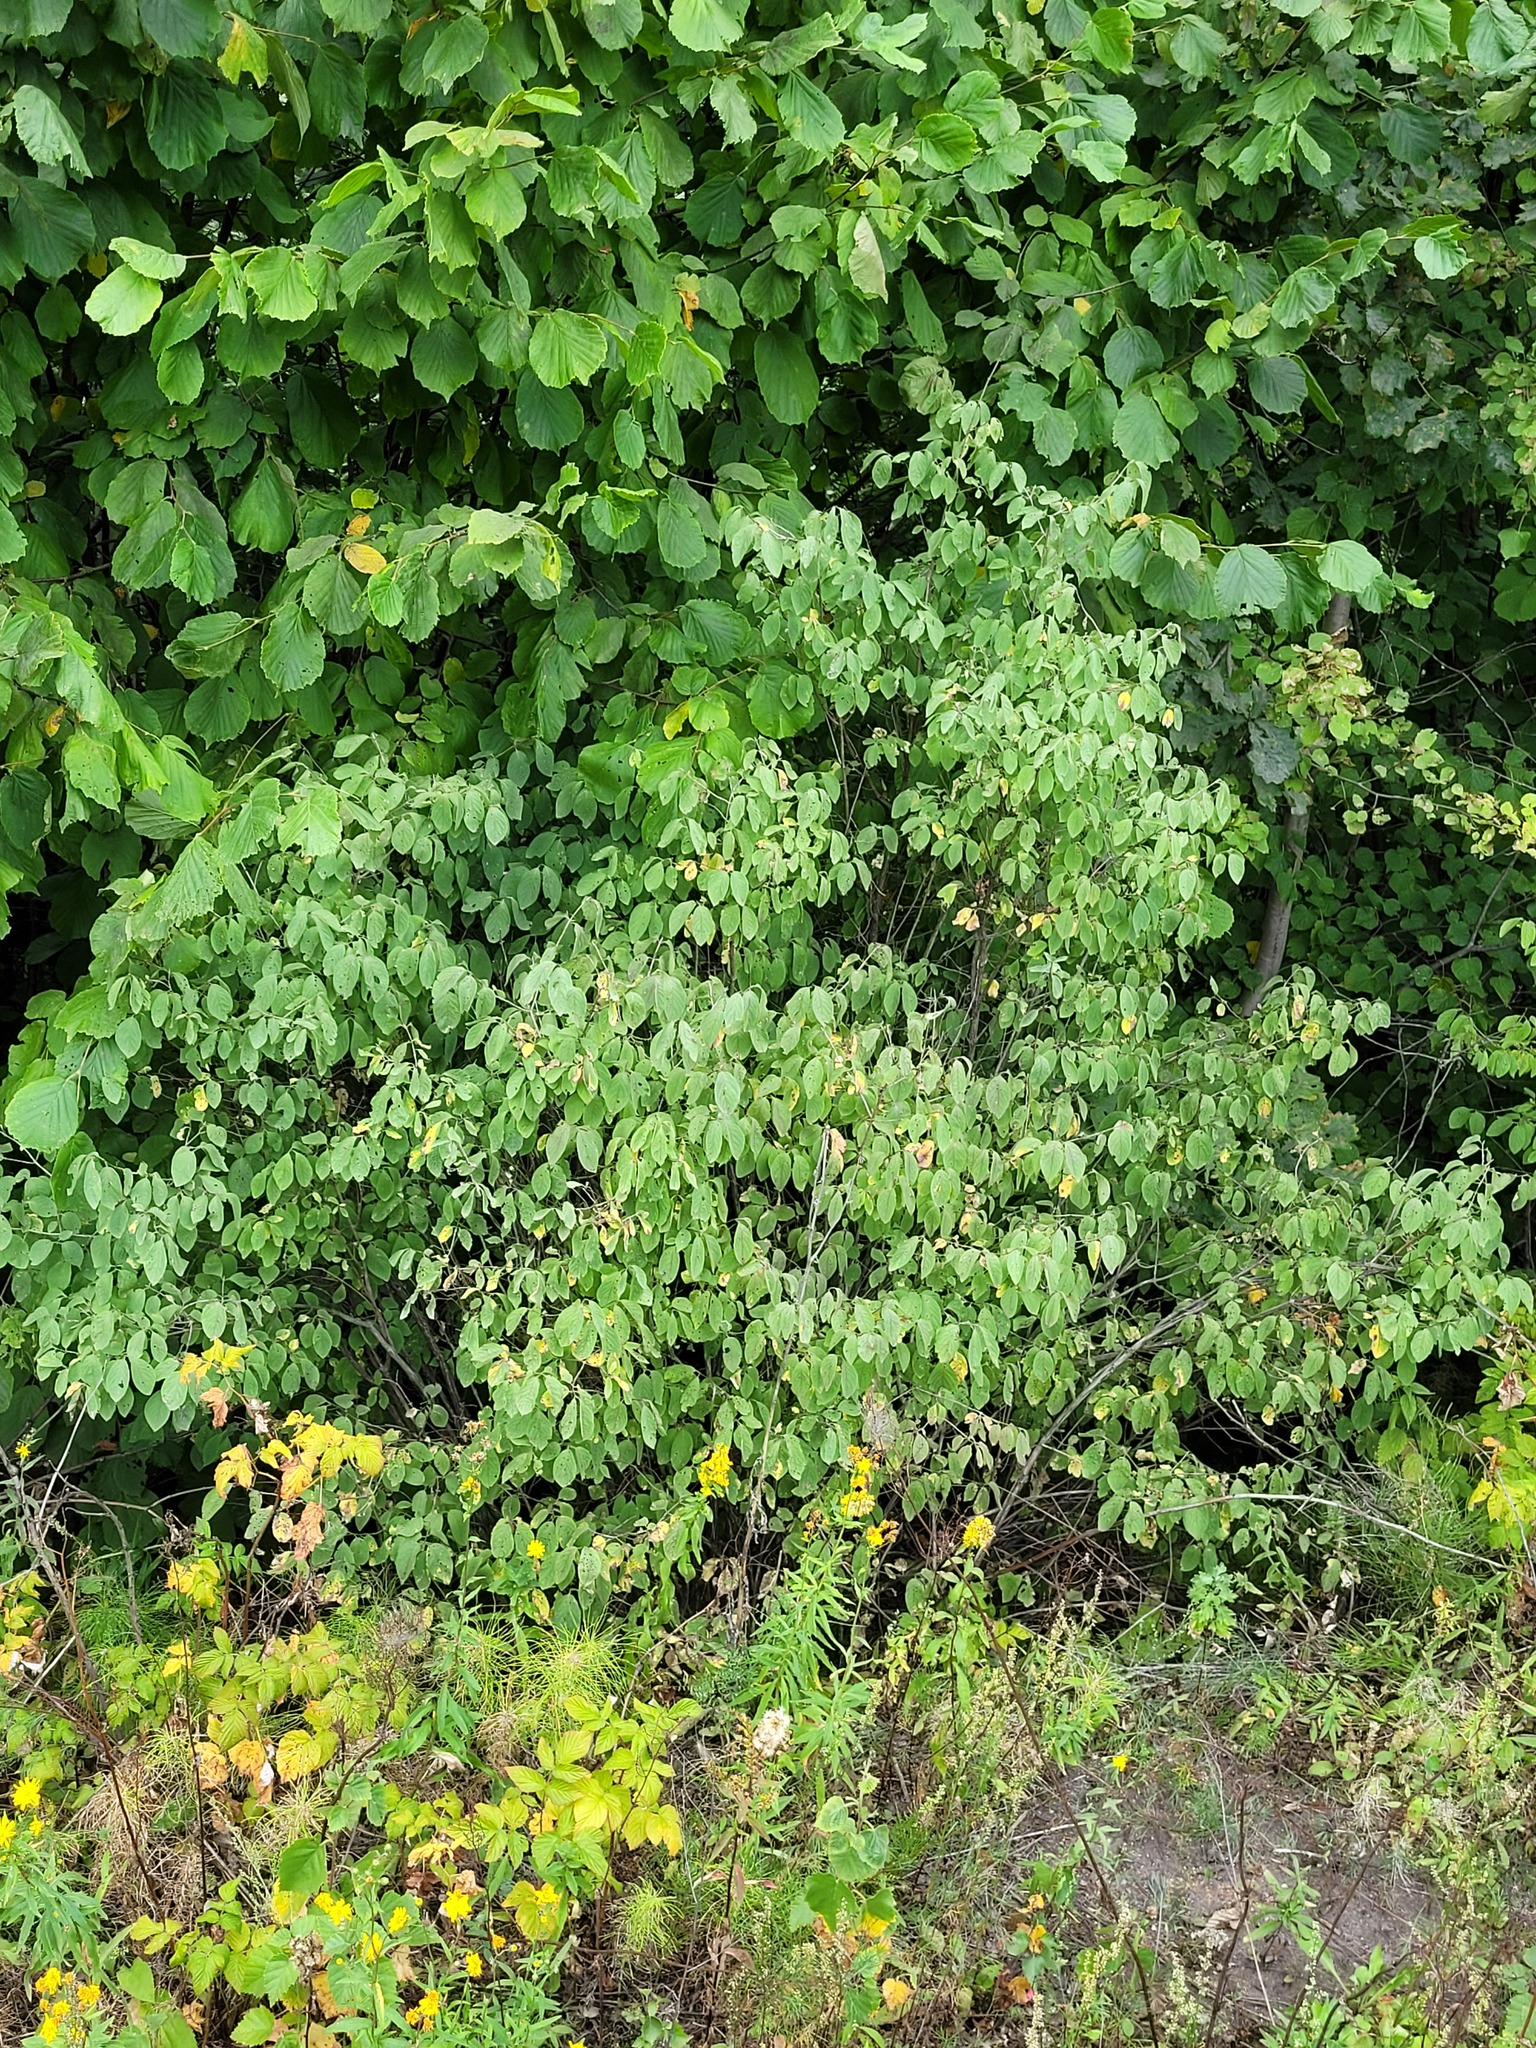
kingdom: Plantae
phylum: Tracheophyta
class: Magnoliopsida
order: Dipsacales
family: Caprifoliaceae
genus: Lonicera
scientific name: Lonicera xylosteum
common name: Fly honeysuckle
